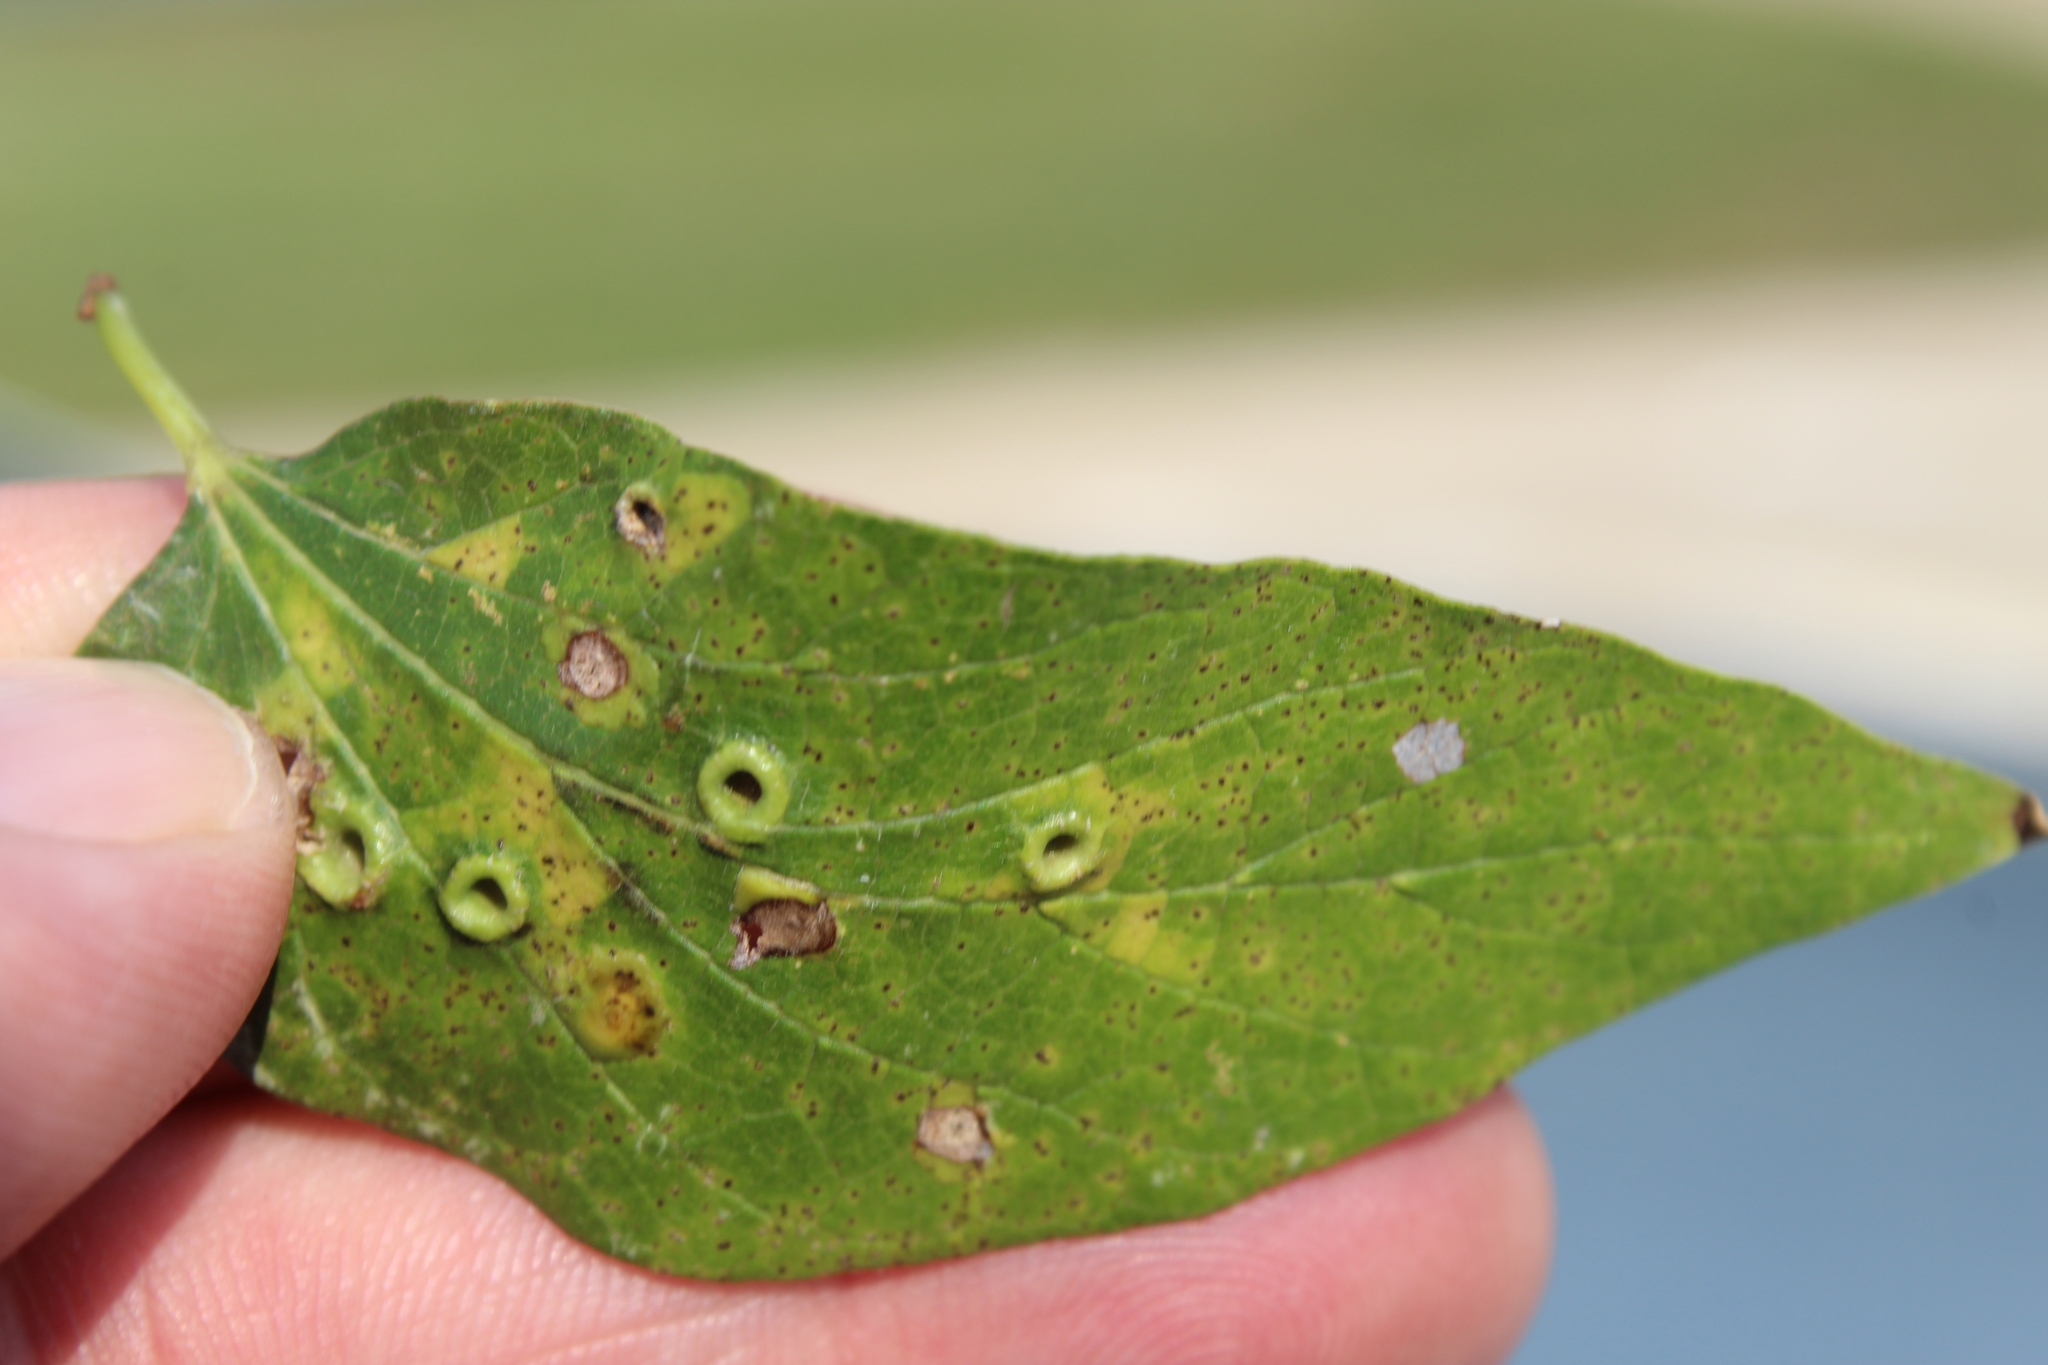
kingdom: Animalia
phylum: Arthropoda
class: Insecta
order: Hemiptera
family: Aphalaridae
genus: Pachypsylla
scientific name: Pachypsylla celtidismamma
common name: Hackberry nipplegall psyllid
